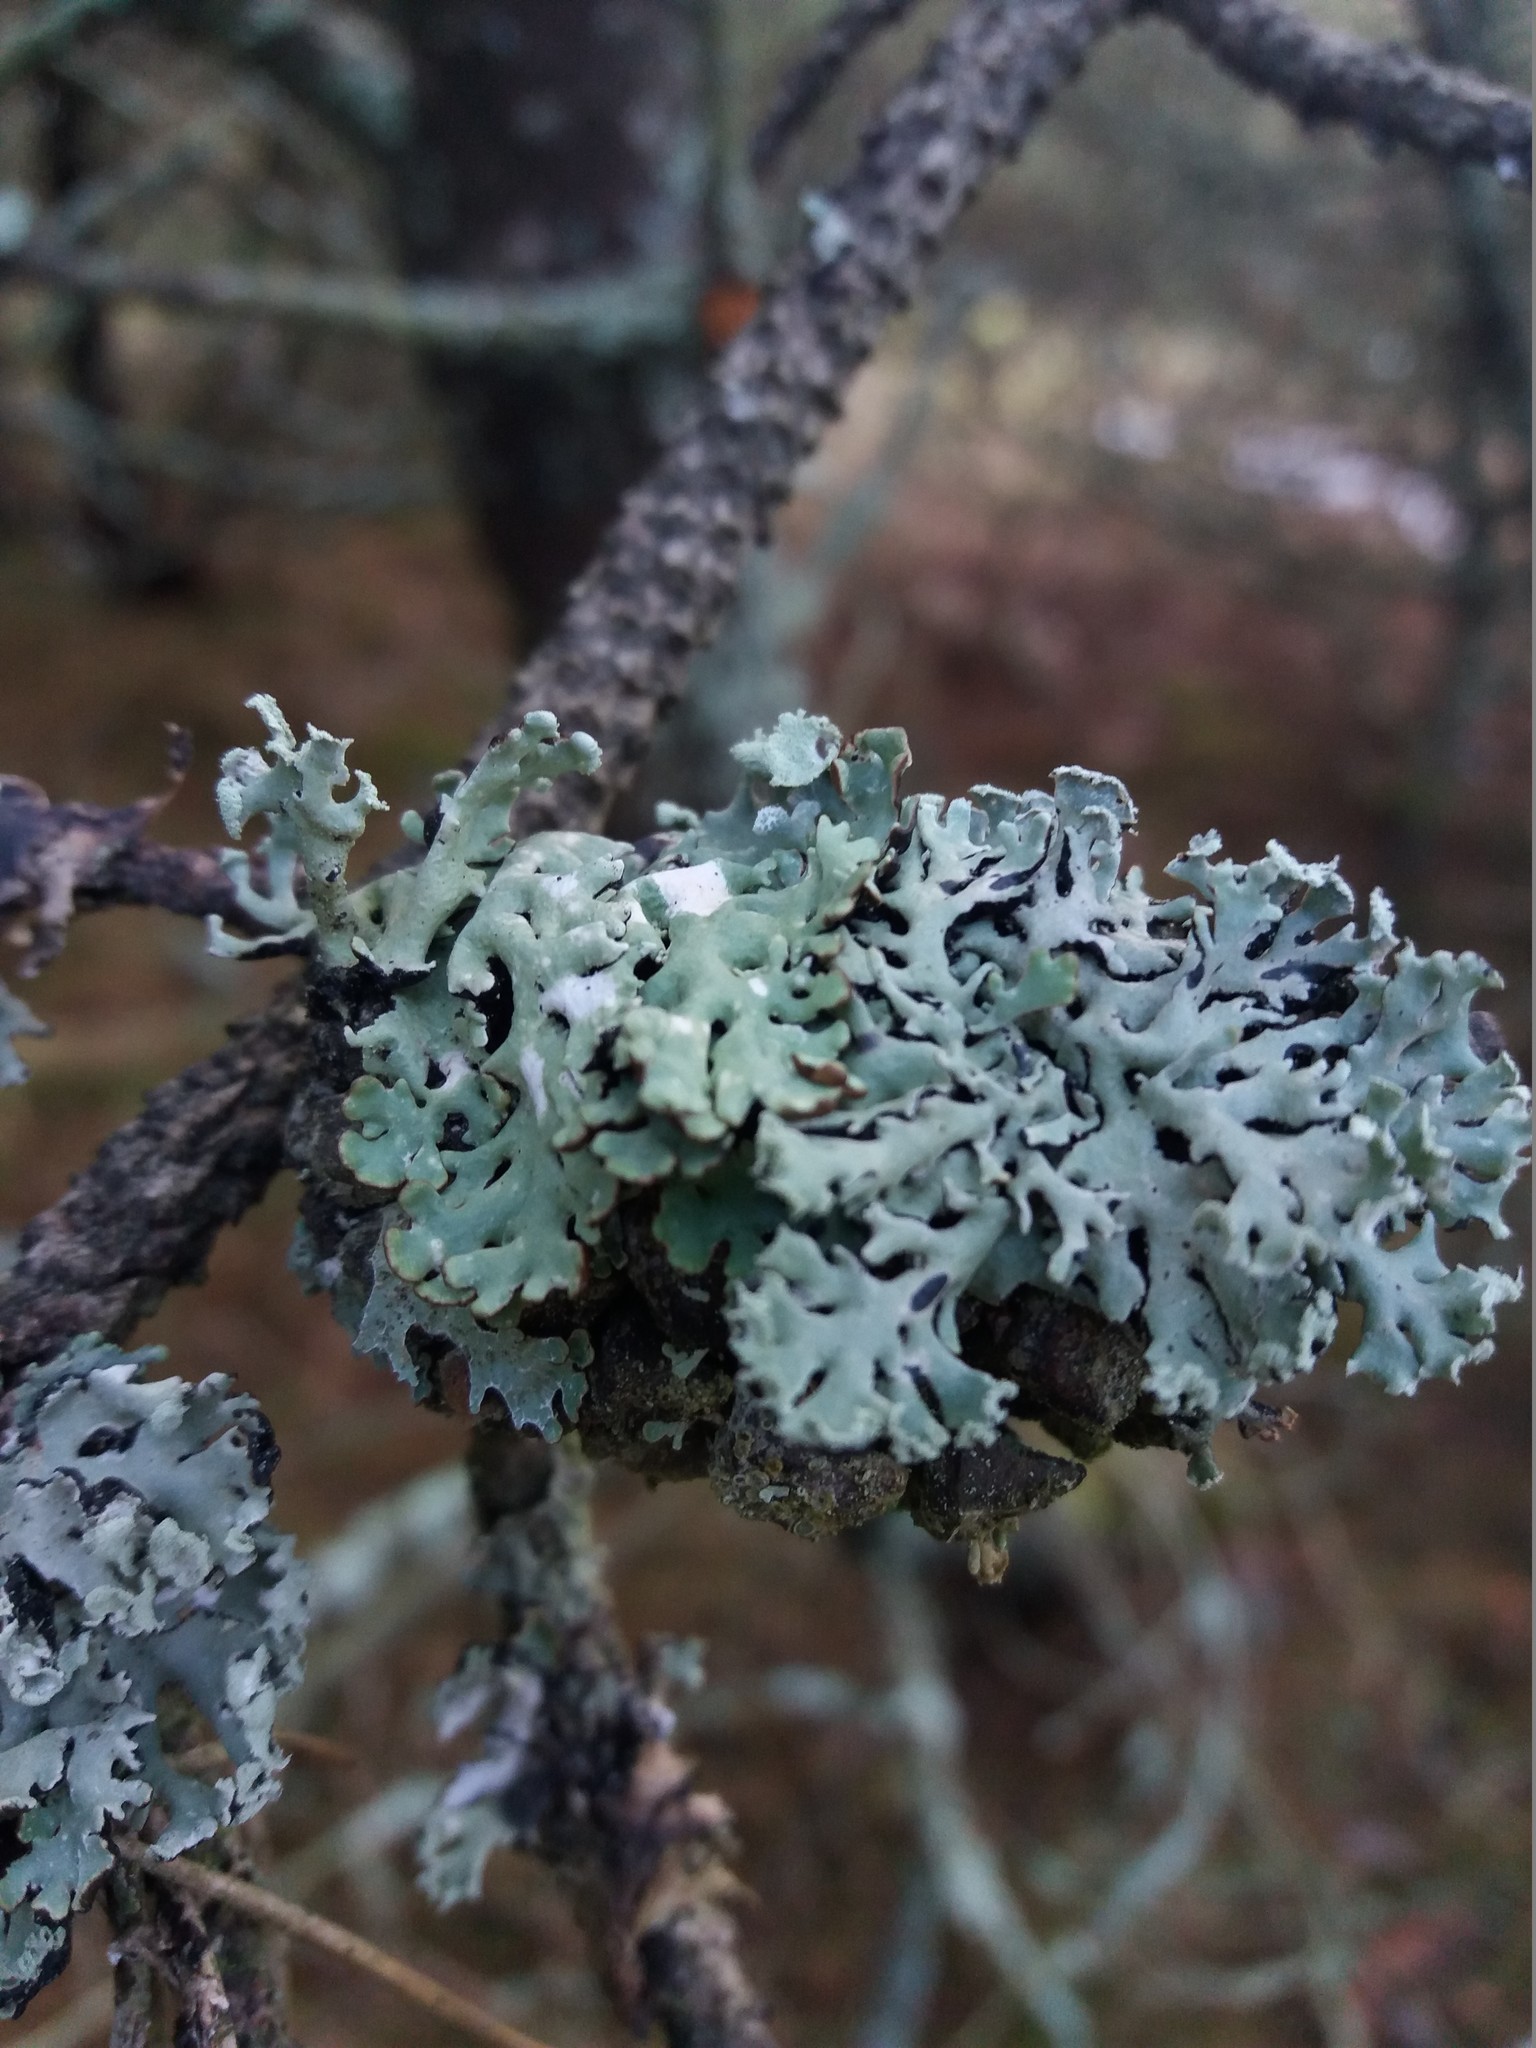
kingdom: Fungi
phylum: Ascomycota
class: Lecanoromycetes
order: Lecanorales
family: Parmeliaceae
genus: Hypogymnia
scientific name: Hypogymnia physodes
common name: Dark crottle
